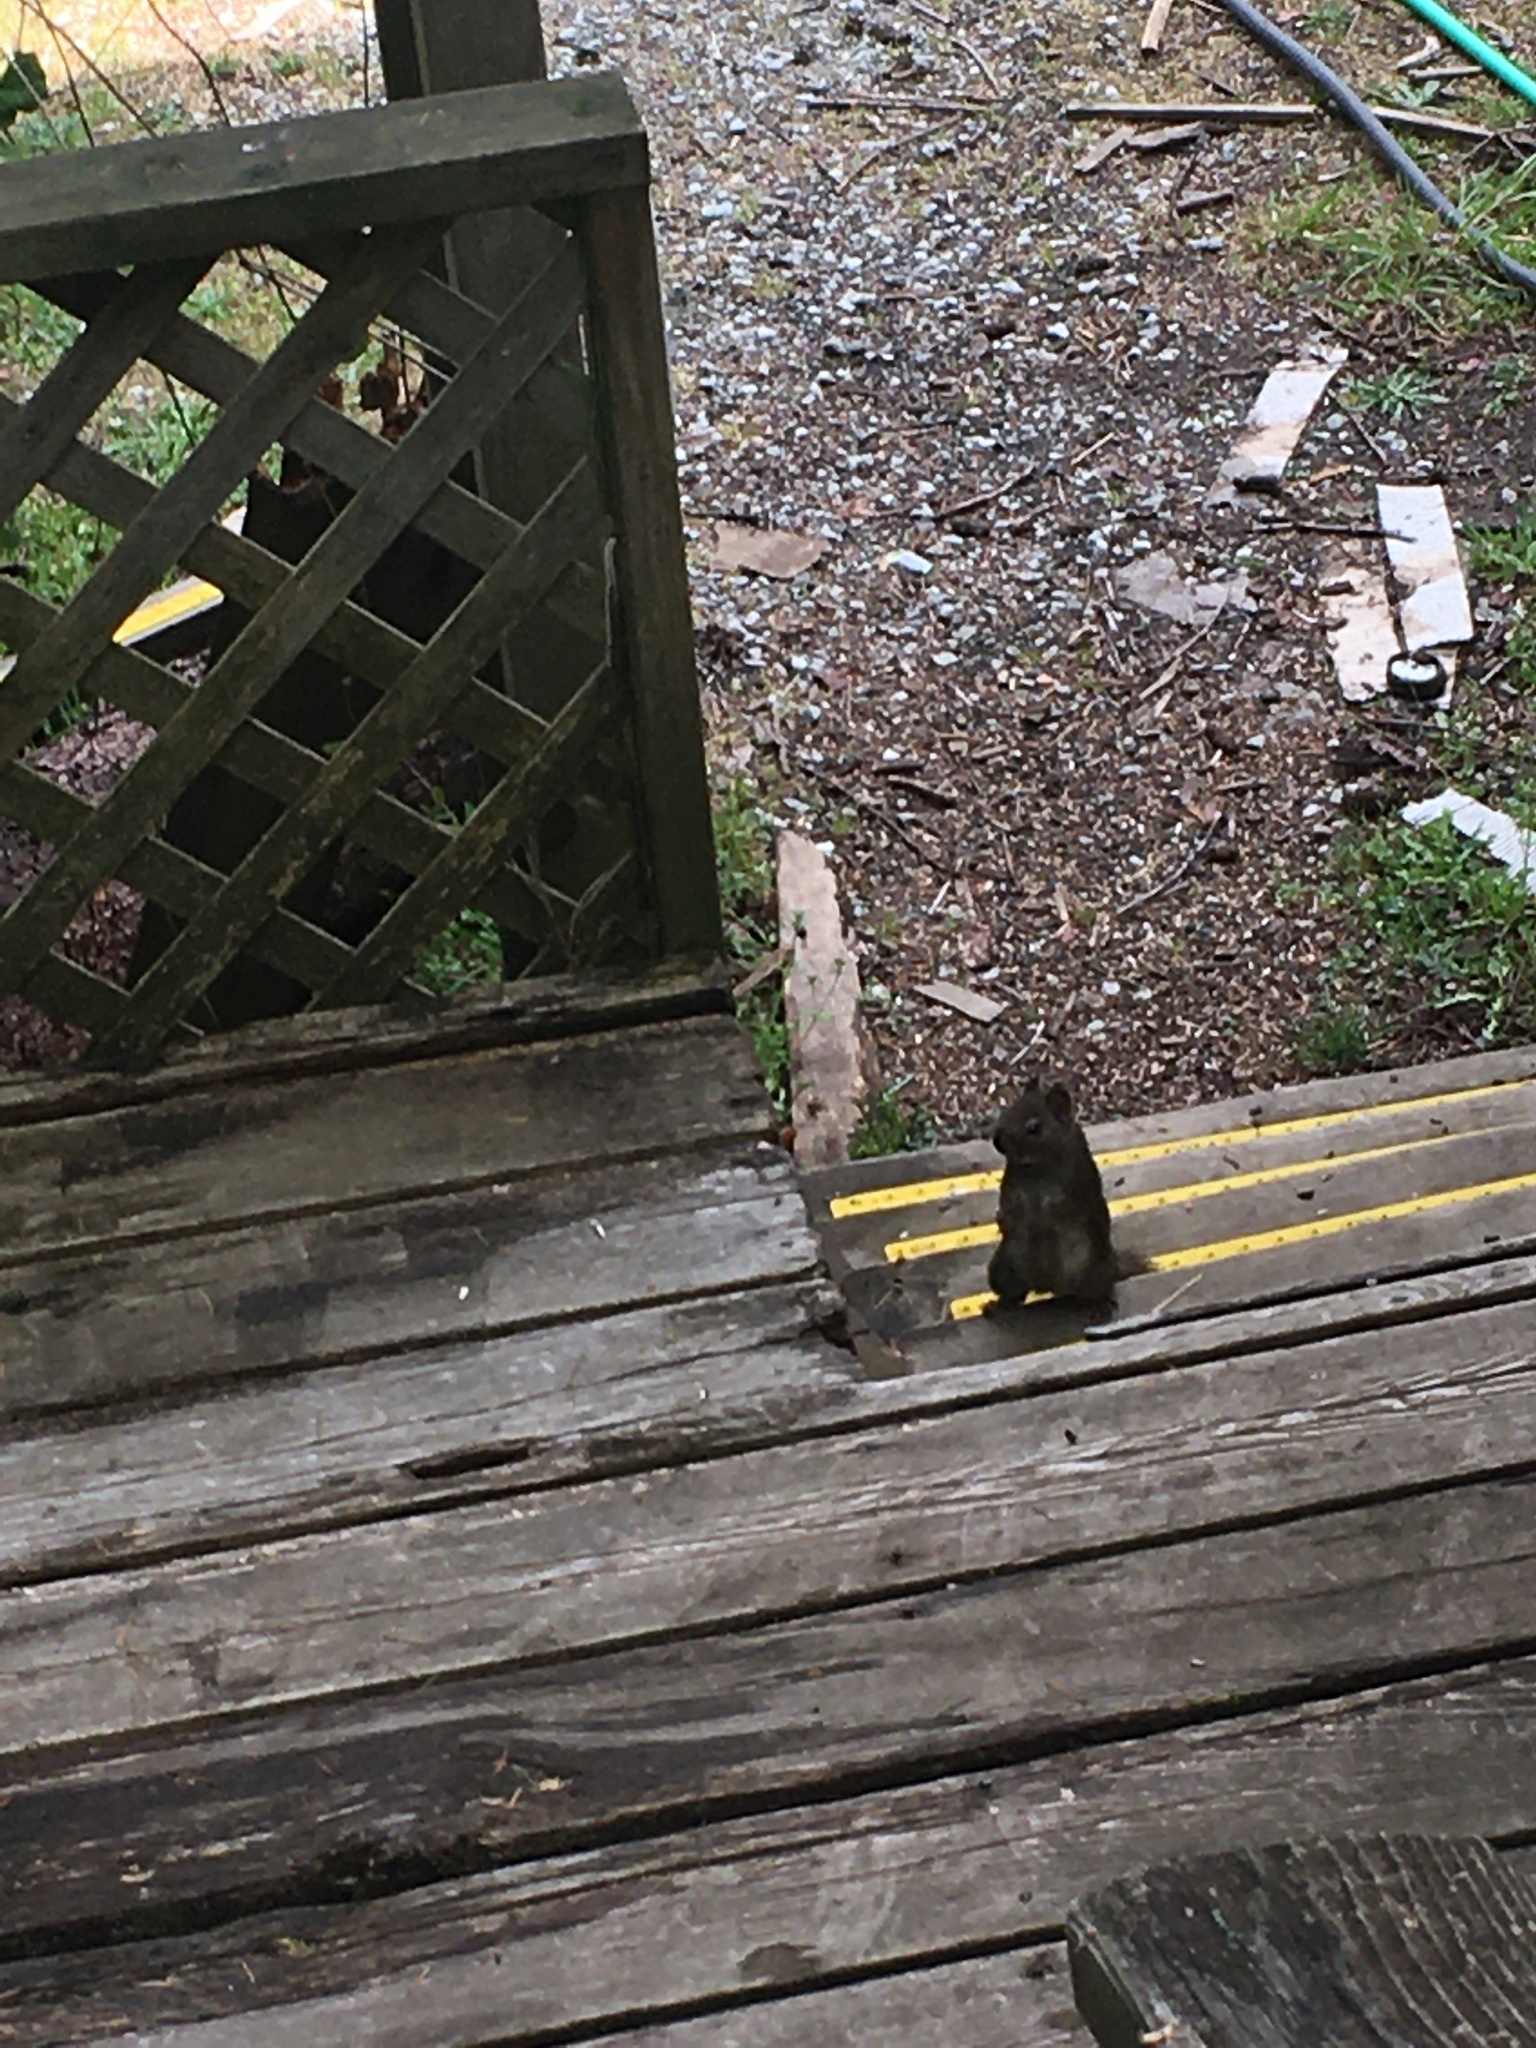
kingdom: Animalia
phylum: Chordata
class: Mammalia
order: Rodentia
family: Sciuridae
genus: Tamiasciurus
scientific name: Tamiasciurus hudsonicus
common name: Red squirrel
